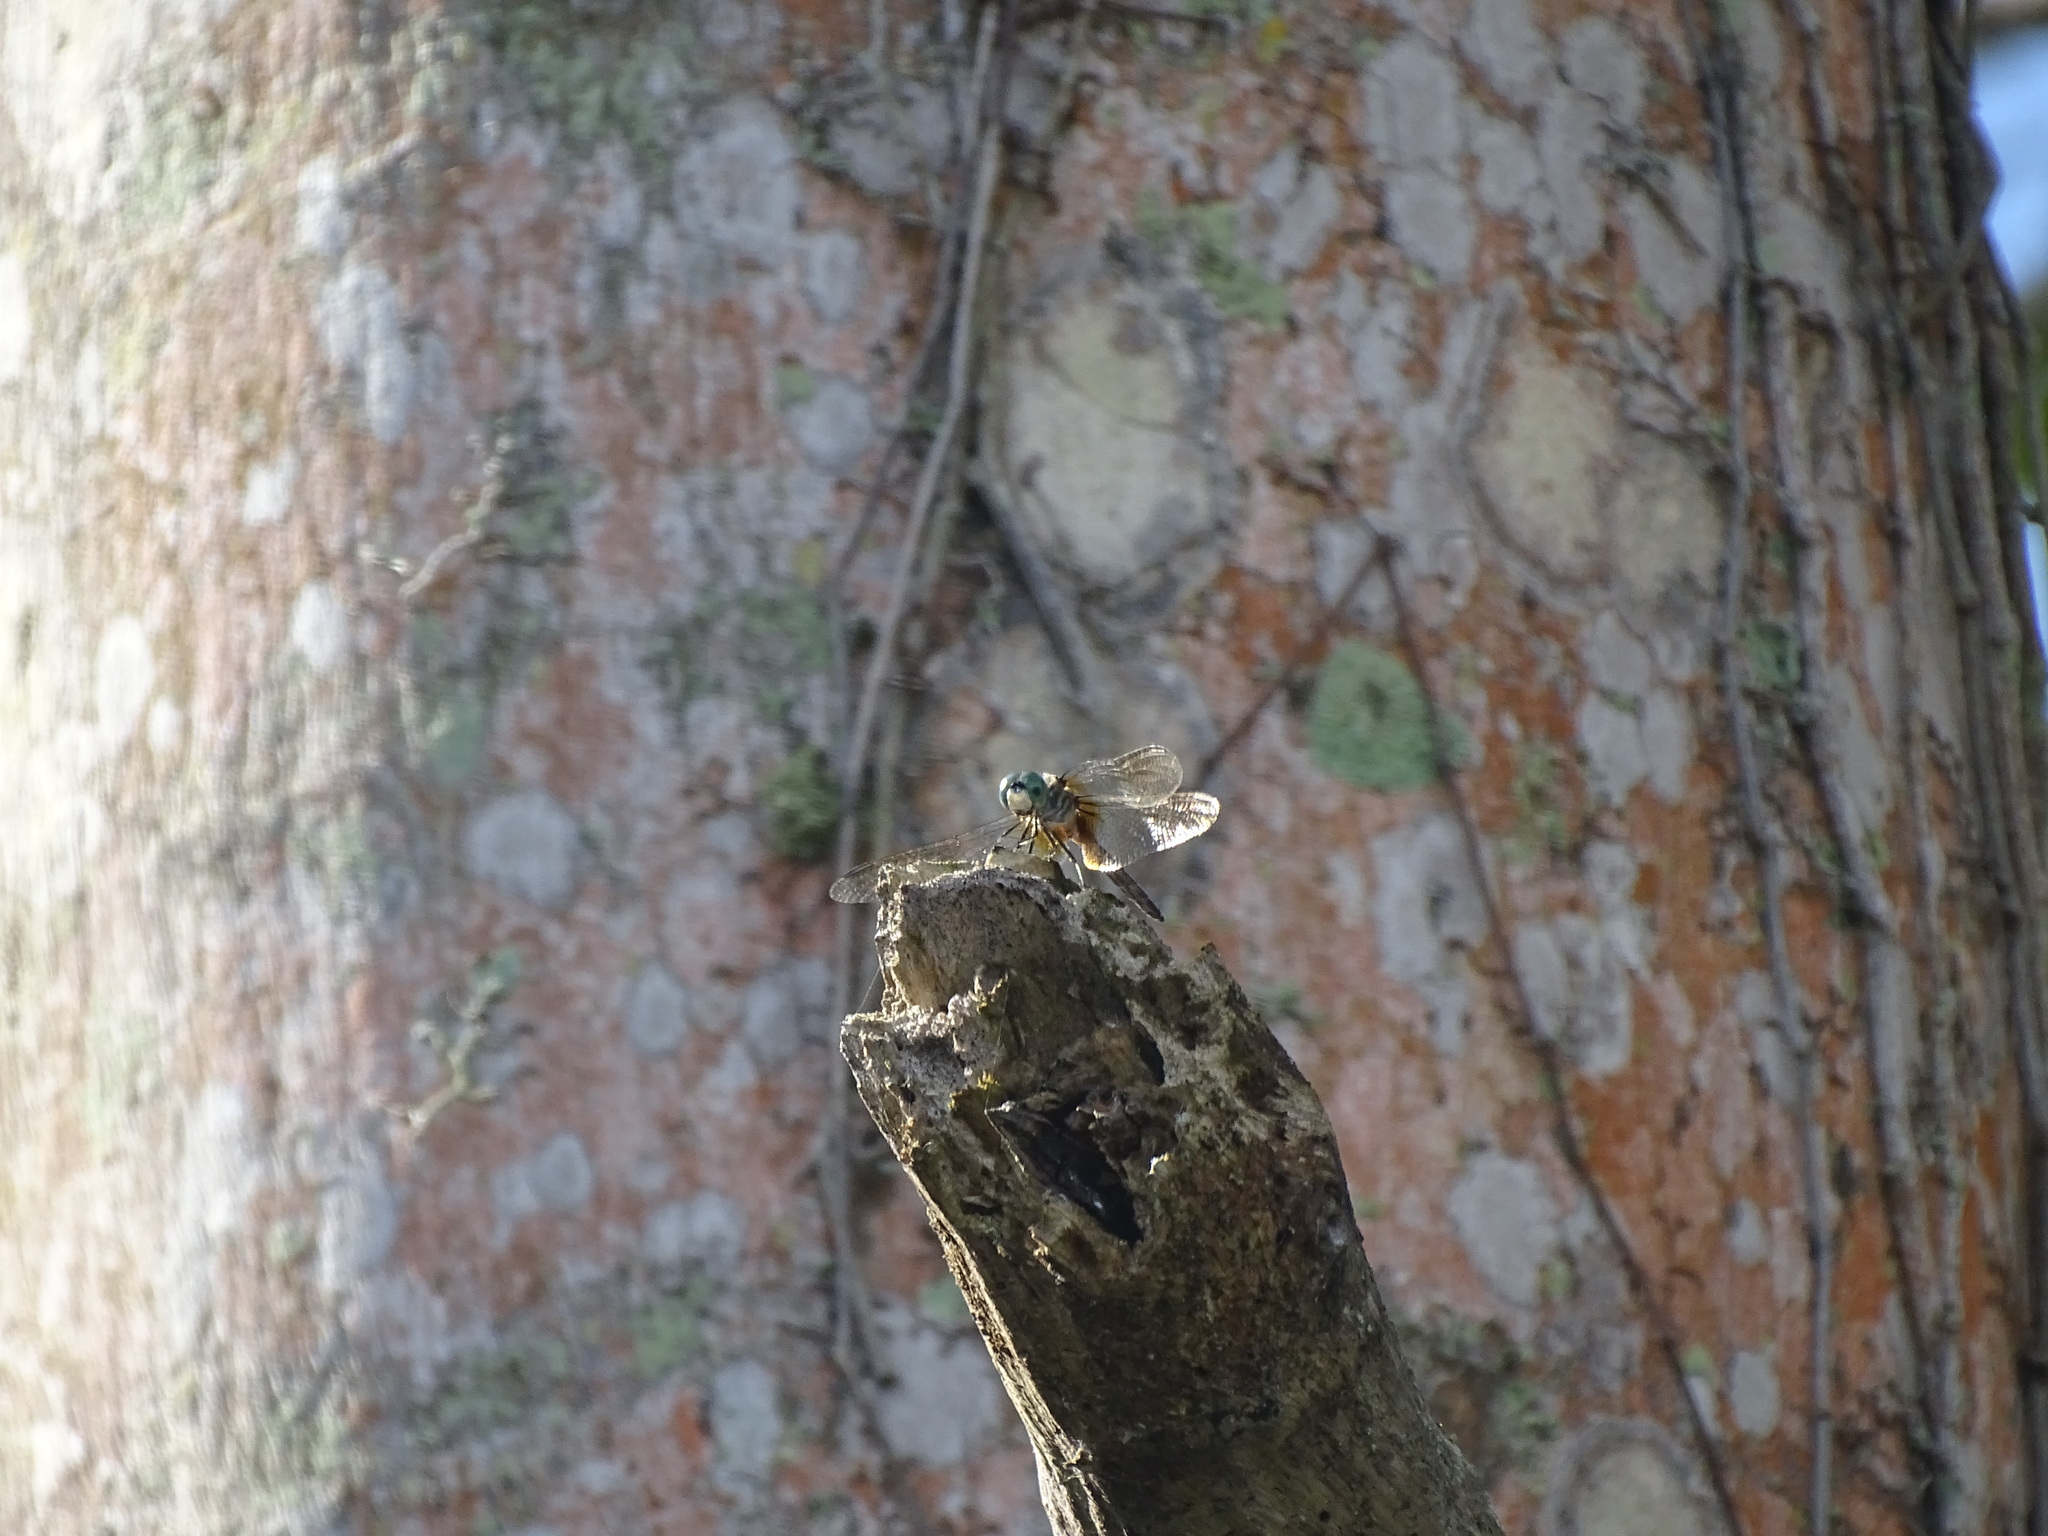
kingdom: Animalia
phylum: Arthropoda
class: Insecta
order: Odonata
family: Libellulidae
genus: Pachydiplax
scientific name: Pachydiplax longipennis
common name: Blue dasher
